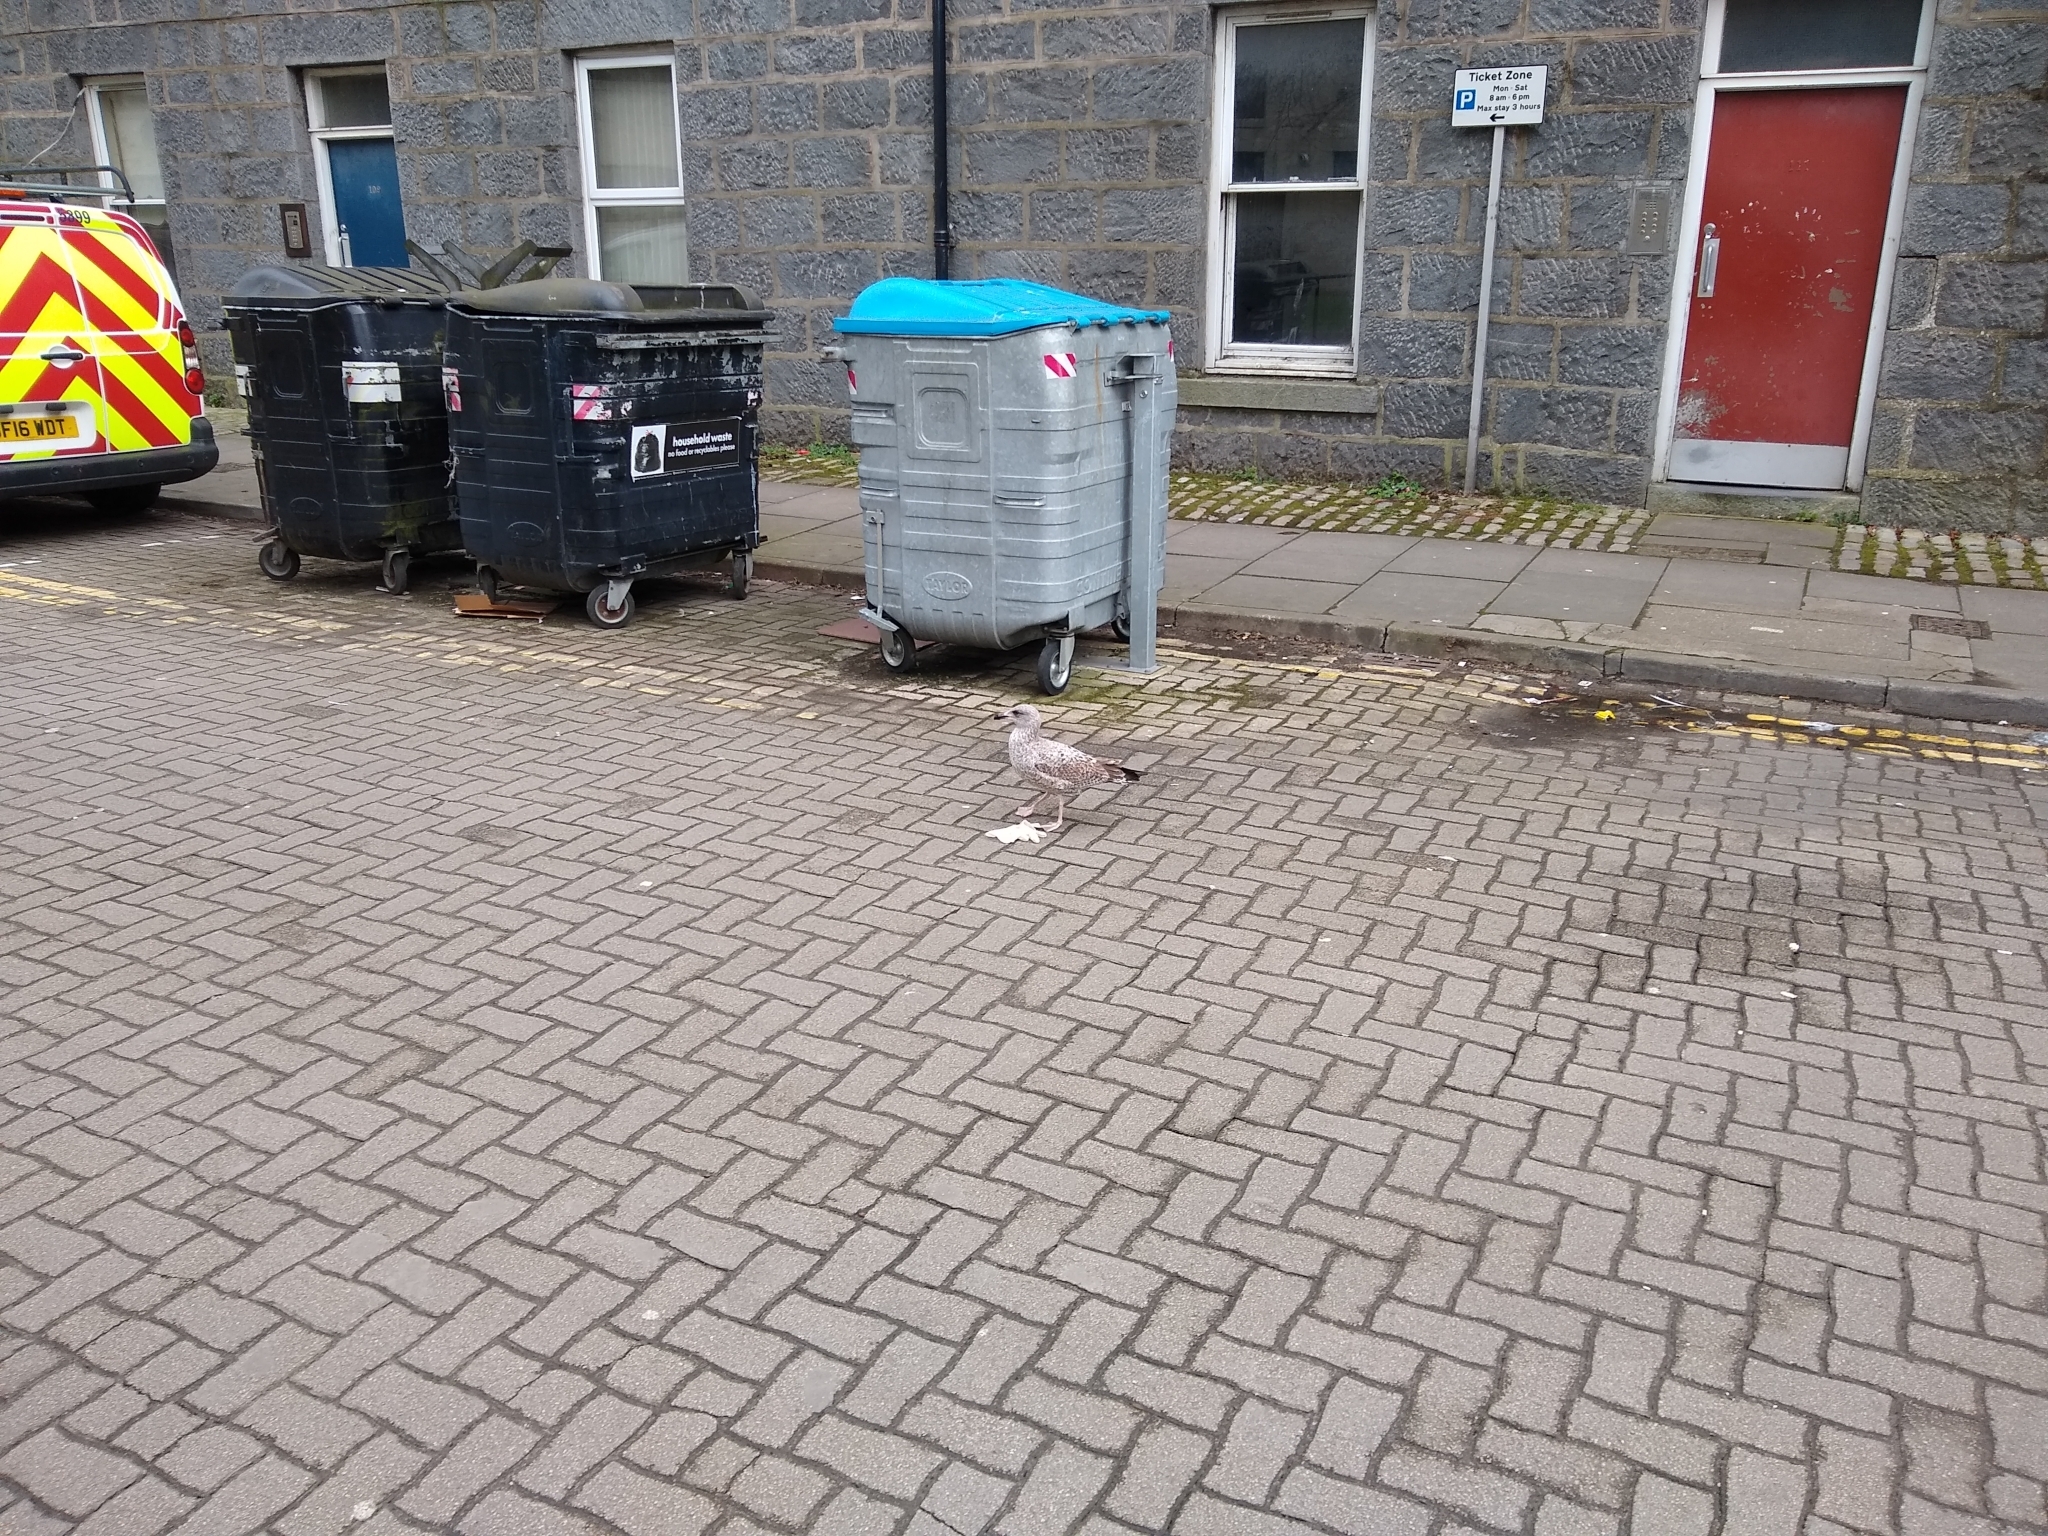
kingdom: Animalia
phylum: Chordata
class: Aves
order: Charadriiformes
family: Laridae
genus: Larus
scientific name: Larus argentatus
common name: Herring gull
